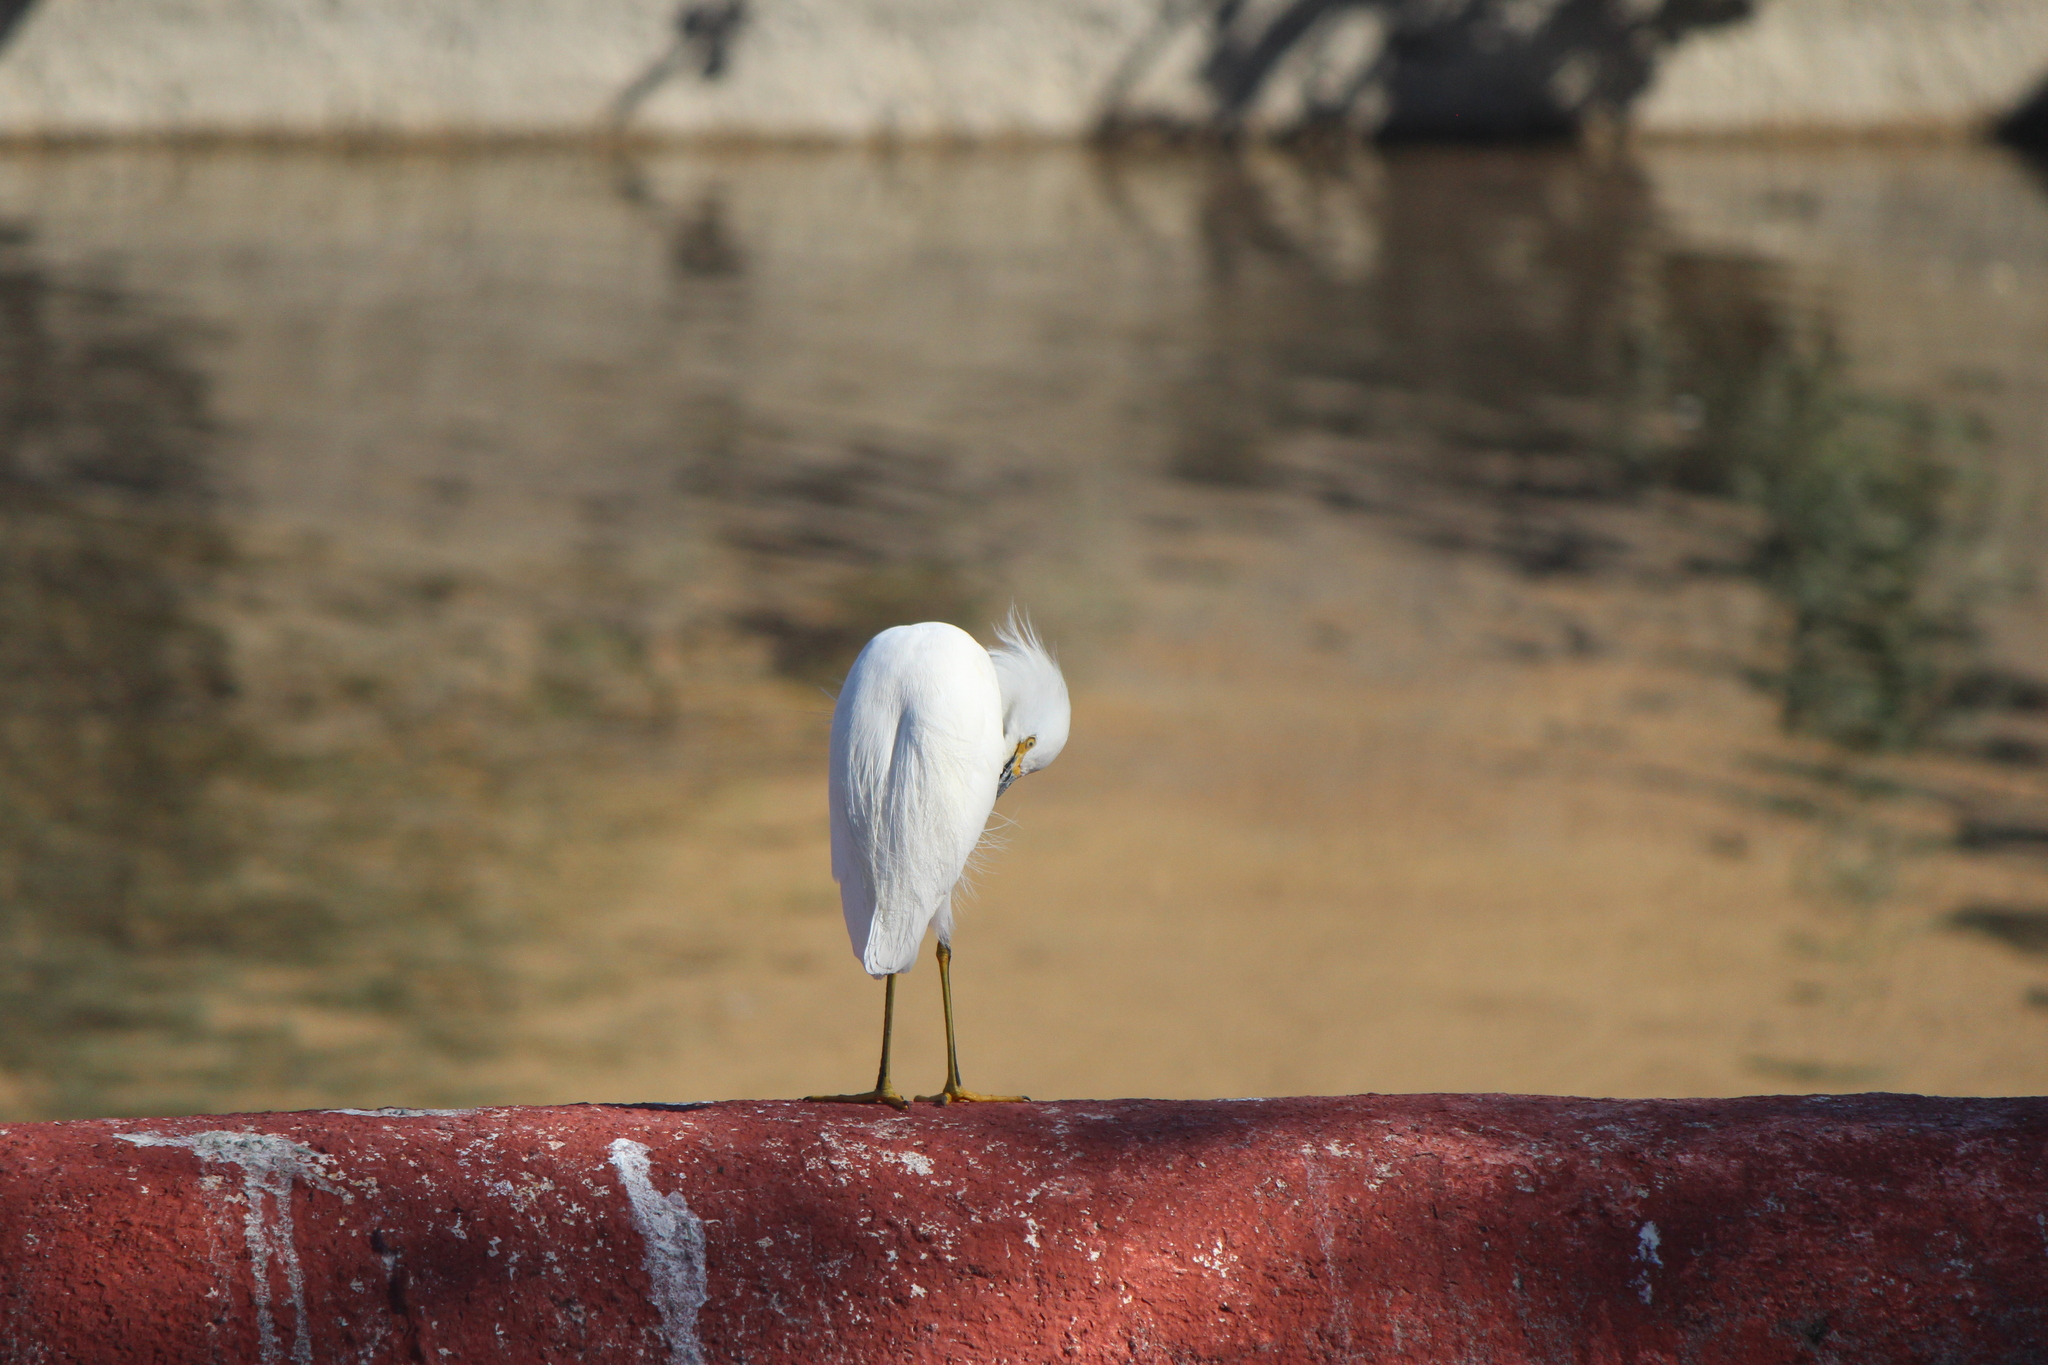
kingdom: Animalia
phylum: Chordata
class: Aves
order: Pelecaniformes
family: Ardeidae
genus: Egretta
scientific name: Egretta thula
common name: Snowy egret
